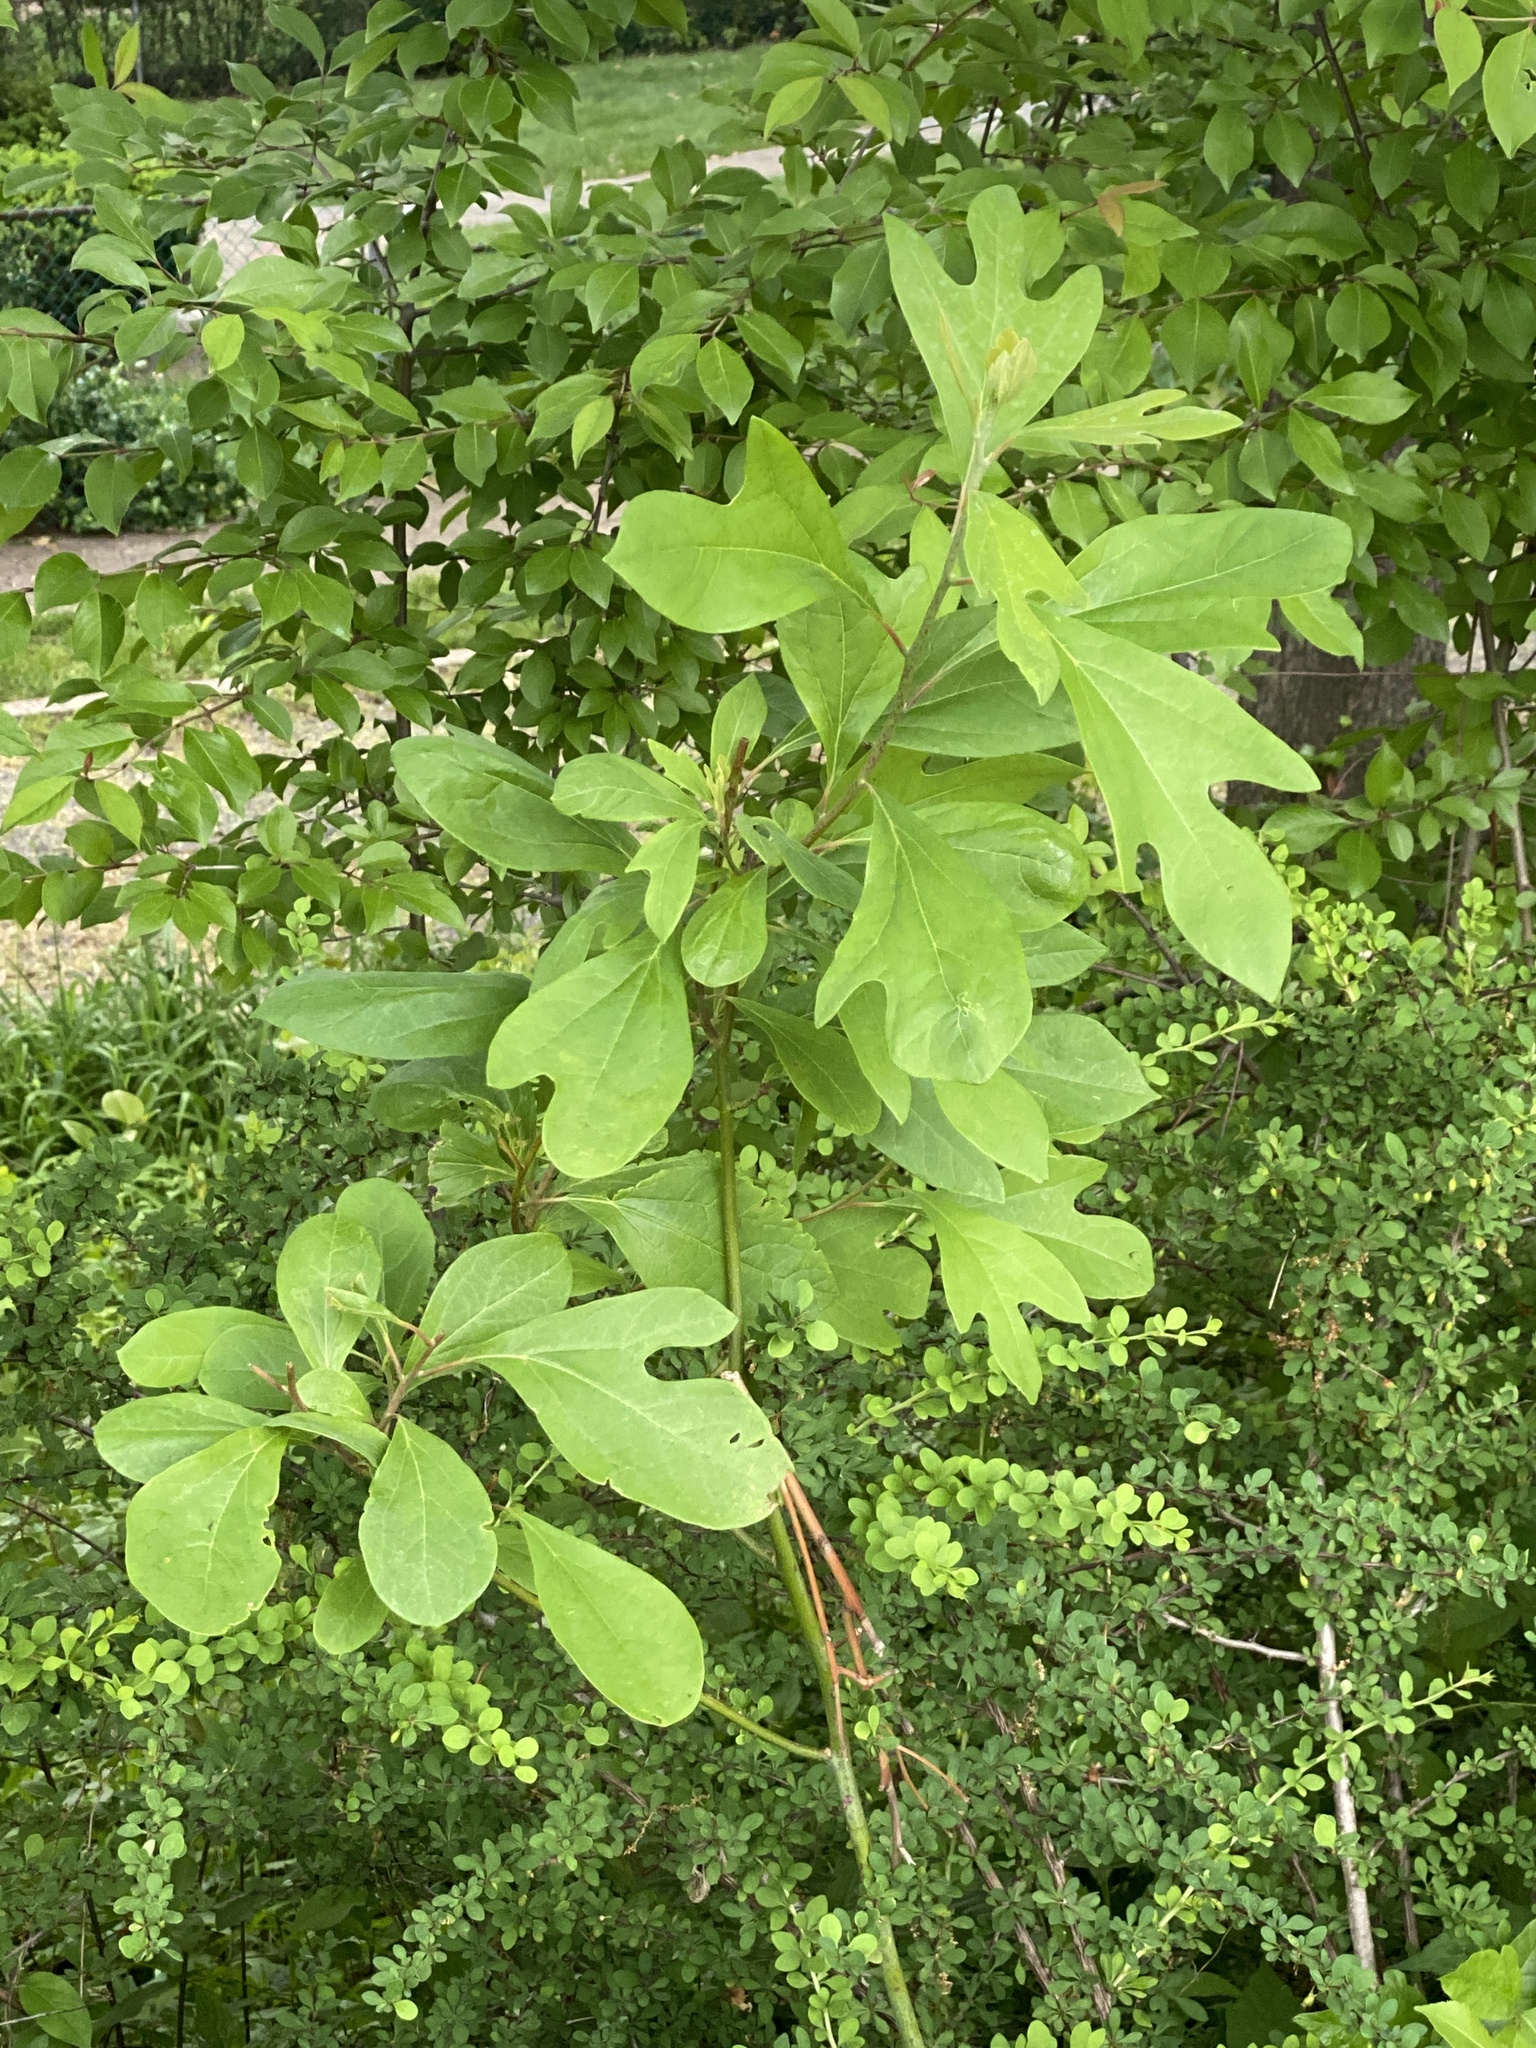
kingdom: Plantae
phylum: Tracheophyta
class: Magnoliopsida
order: Laurales
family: Lauraceae
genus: Sassafras
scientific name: Sassafras albidum
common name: Sassafras
